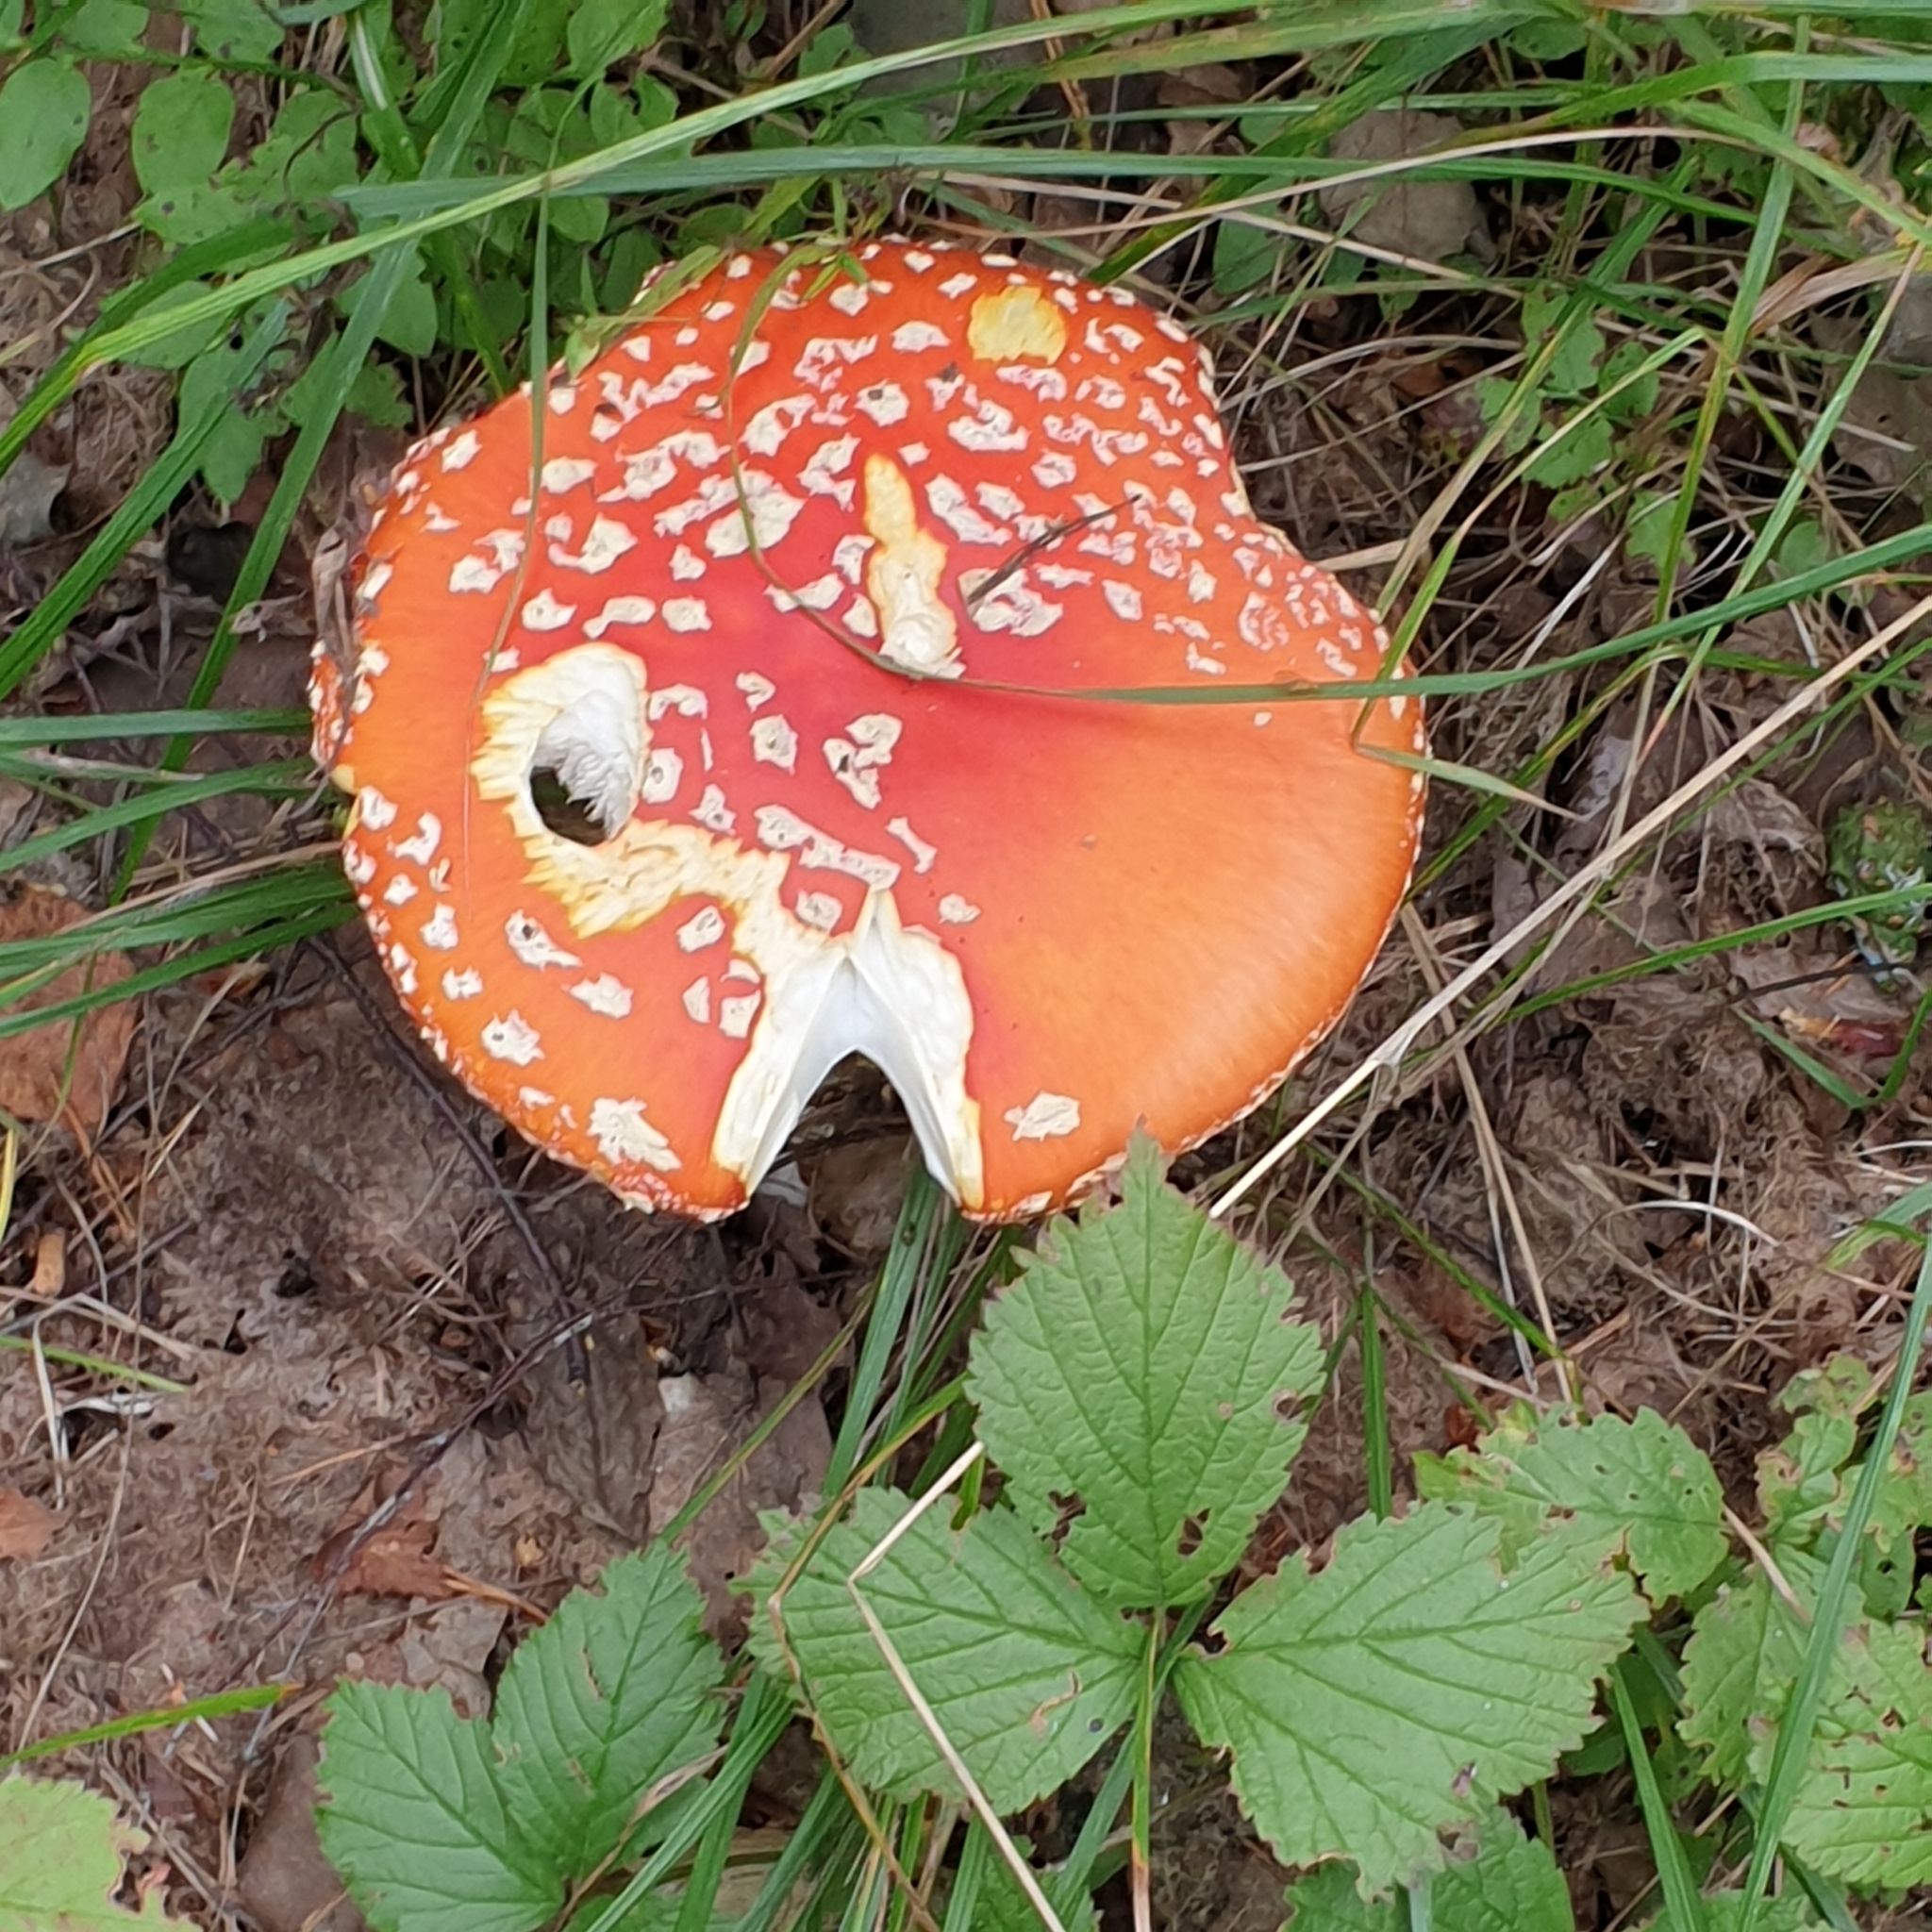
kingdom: Fungi
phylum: Basidiomycota
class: Agaricomycetes
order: Agaricales
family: Amanitaceae
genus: Amanita
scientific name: Amanita muscaria
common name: Fly agaric
